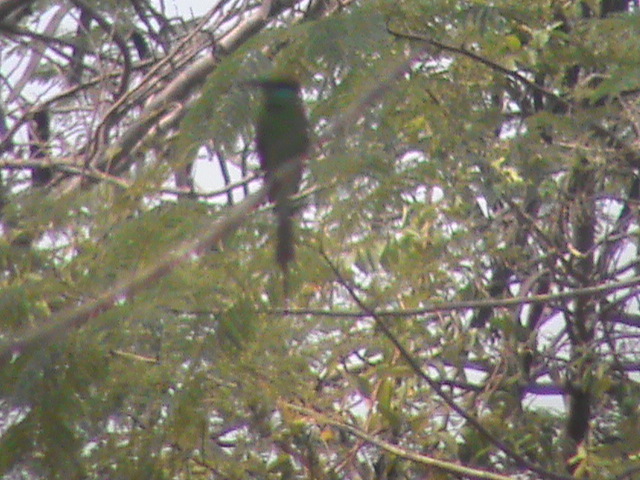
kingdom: Animalia
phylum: Chordata
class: Aves
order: Coraciiformes
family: Meropidae
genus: Merops
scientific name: Merops orientalis
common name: Green bee-eater
